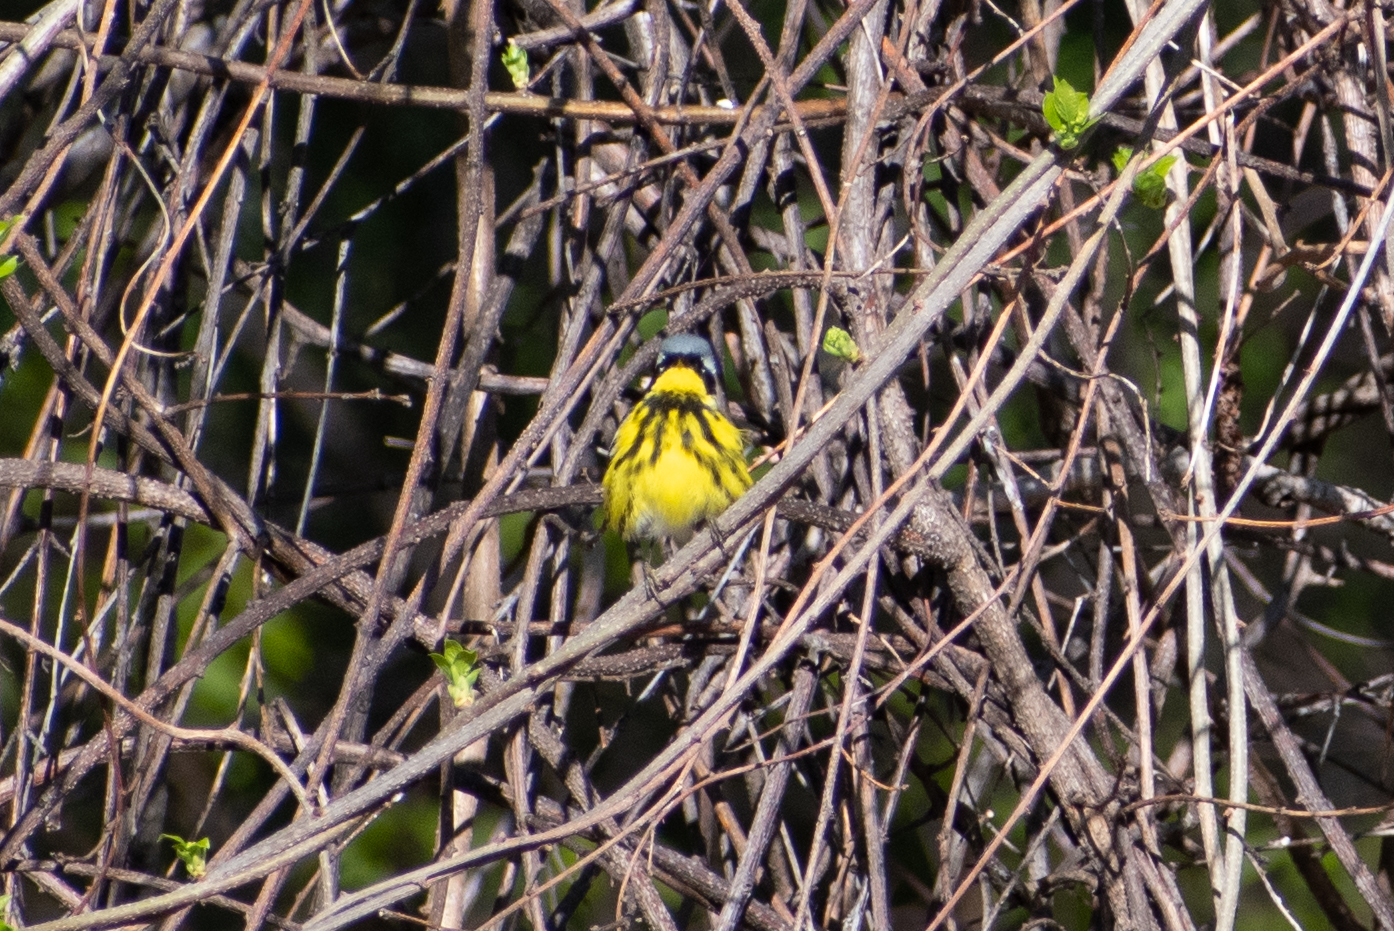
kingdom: Animalia
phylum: Chordata
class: Aves
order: Passeriformes
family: Parulidae
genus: Setophaga
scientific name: Setophaga magnolia
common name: Magnolia warbler
